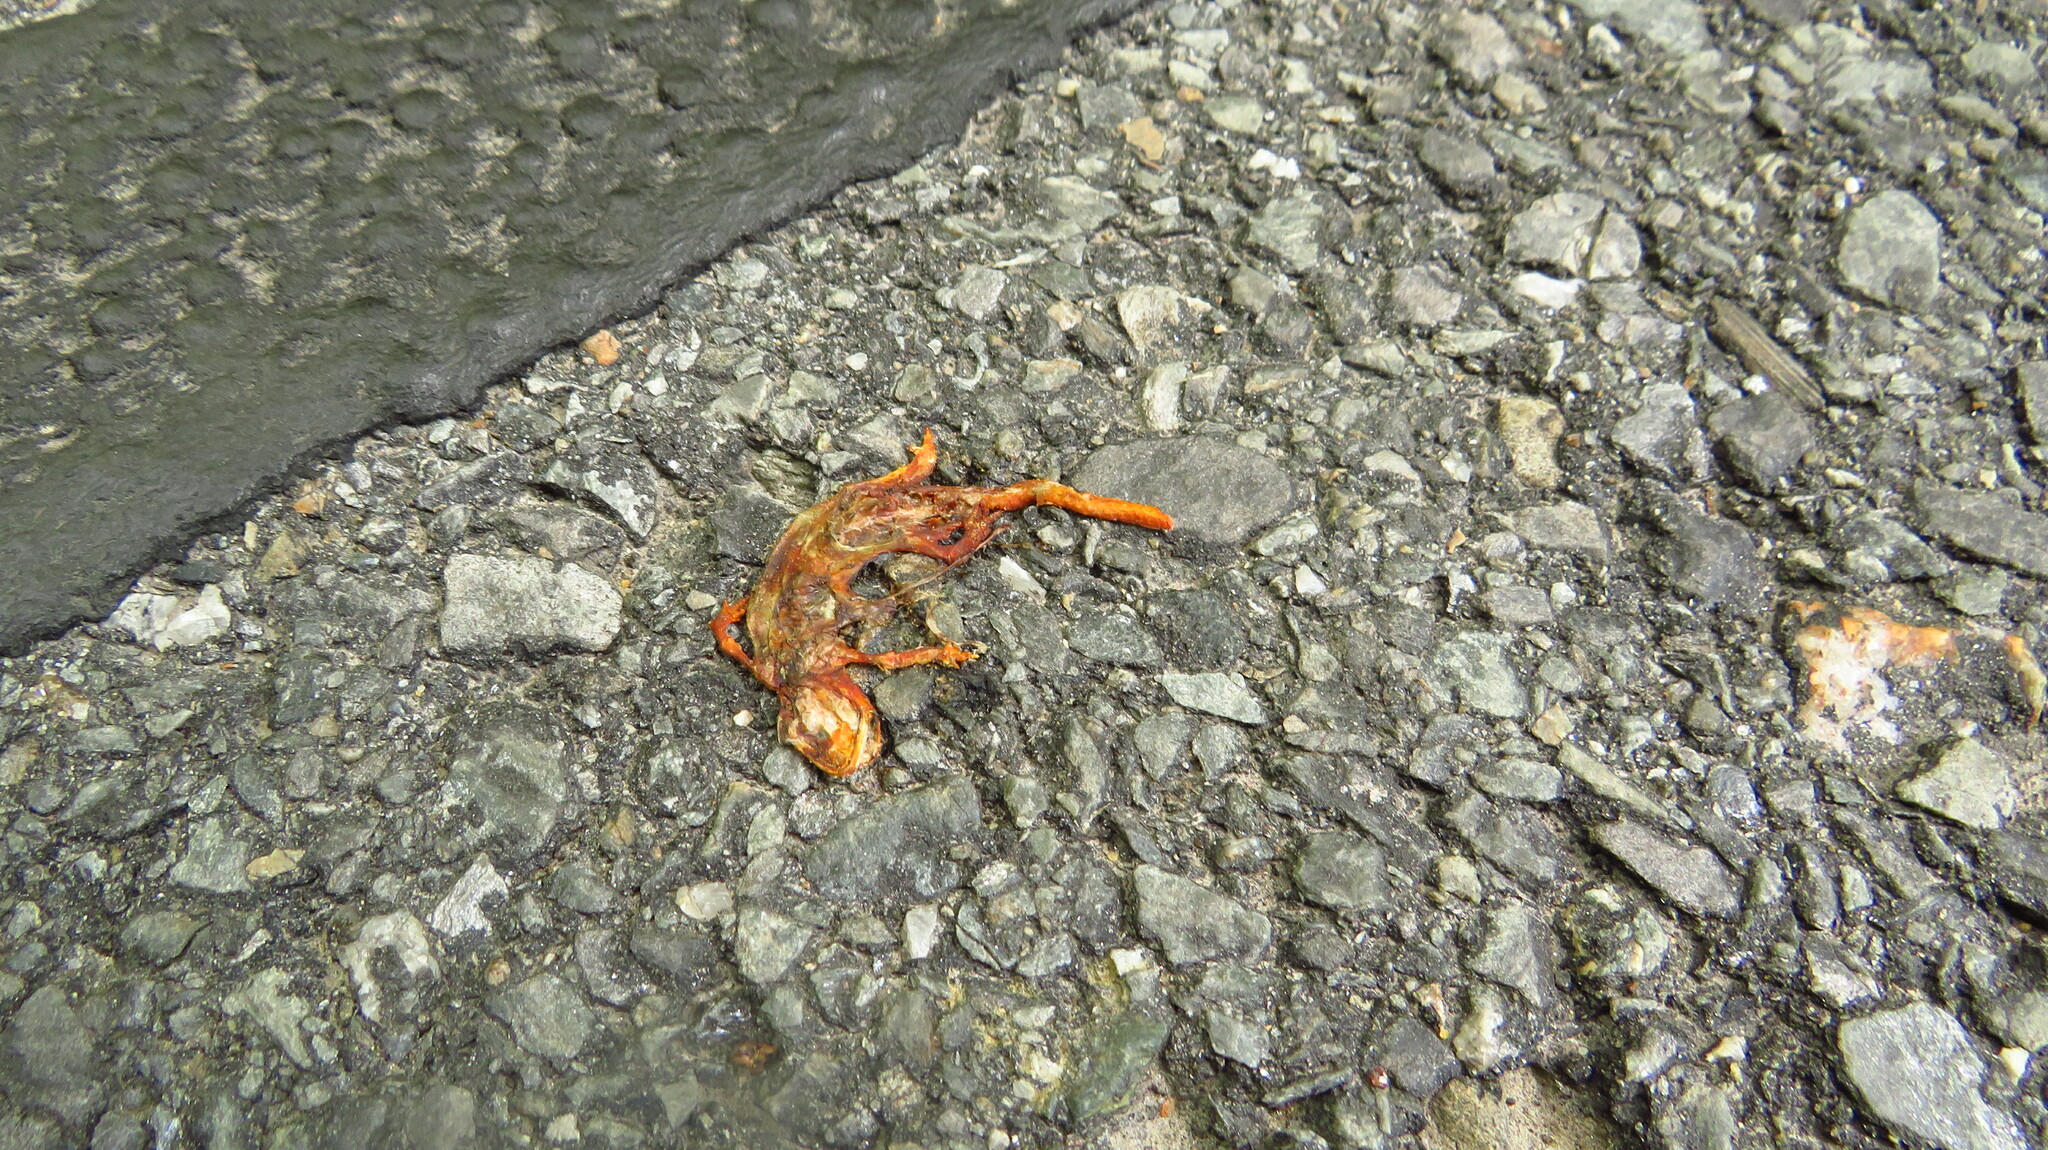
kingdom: Animalia
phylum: Chordata
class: Amphibia
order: Caudata
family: Salamandridae
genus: Notophthalmus
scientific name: Notophthalmus viridescens
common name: Eastern newt
